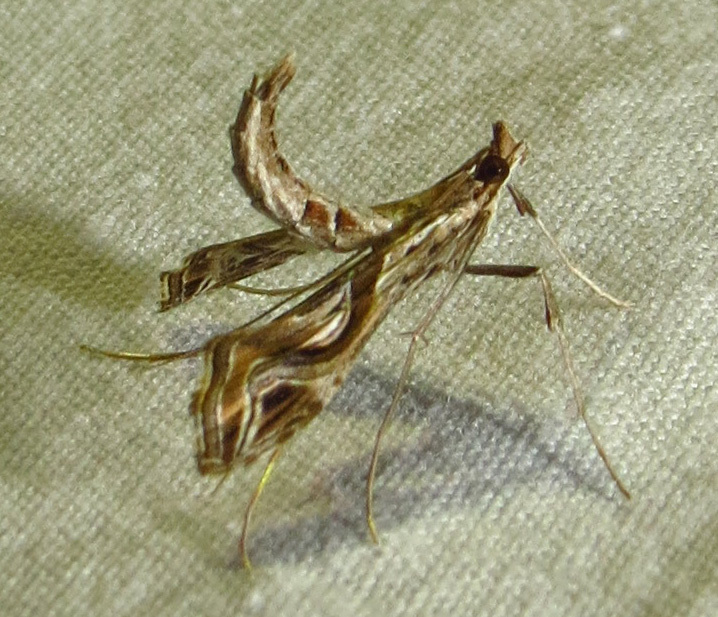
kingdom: Animalia
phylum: Arthropoda
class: Insecta
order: Lepidoptera
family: Crambidae
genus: Lineodes
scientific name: Lineodes integra
